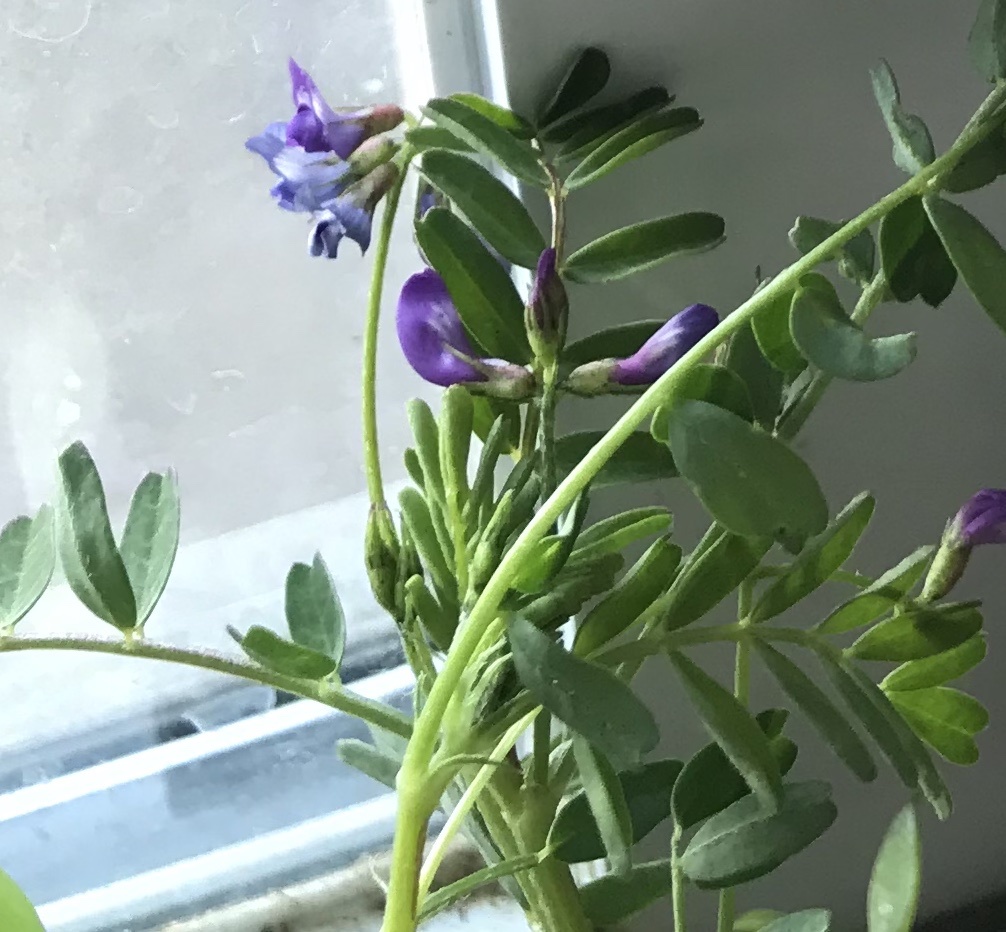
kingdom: Plantae
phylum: Tracheophyta
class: Magnoliopsida
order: Fabales
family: Fabaceae
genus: Astragalus
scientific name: Astragalus leptocarpus
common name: Bodkin milk-vetch
